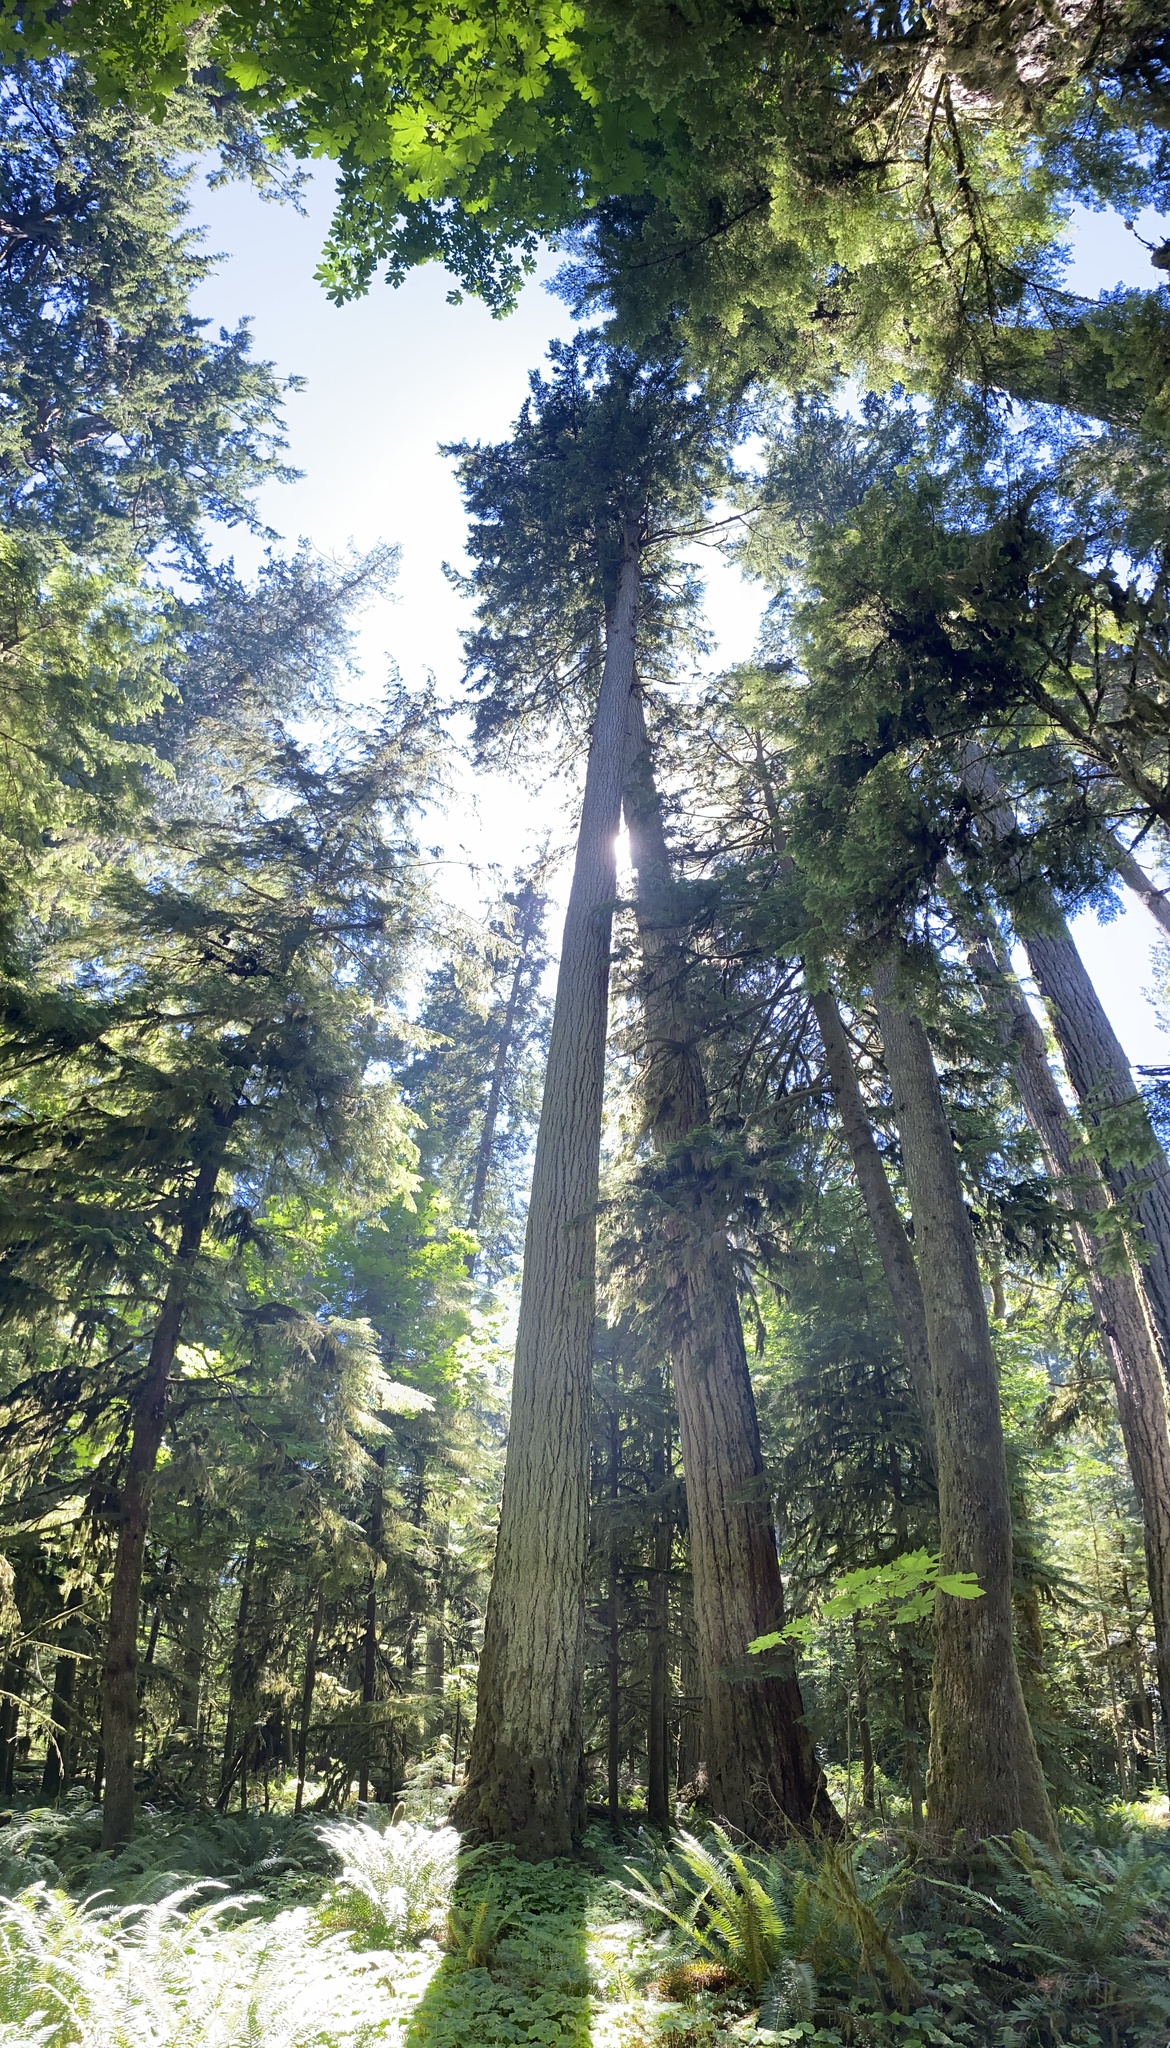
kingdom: Plantae
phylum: Tracheophyta
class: Pinopsida
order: Pinales
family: Pinaceae
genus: Pseudotsuga
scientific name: Pseudotsuga menziesii
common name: Douglas fir
